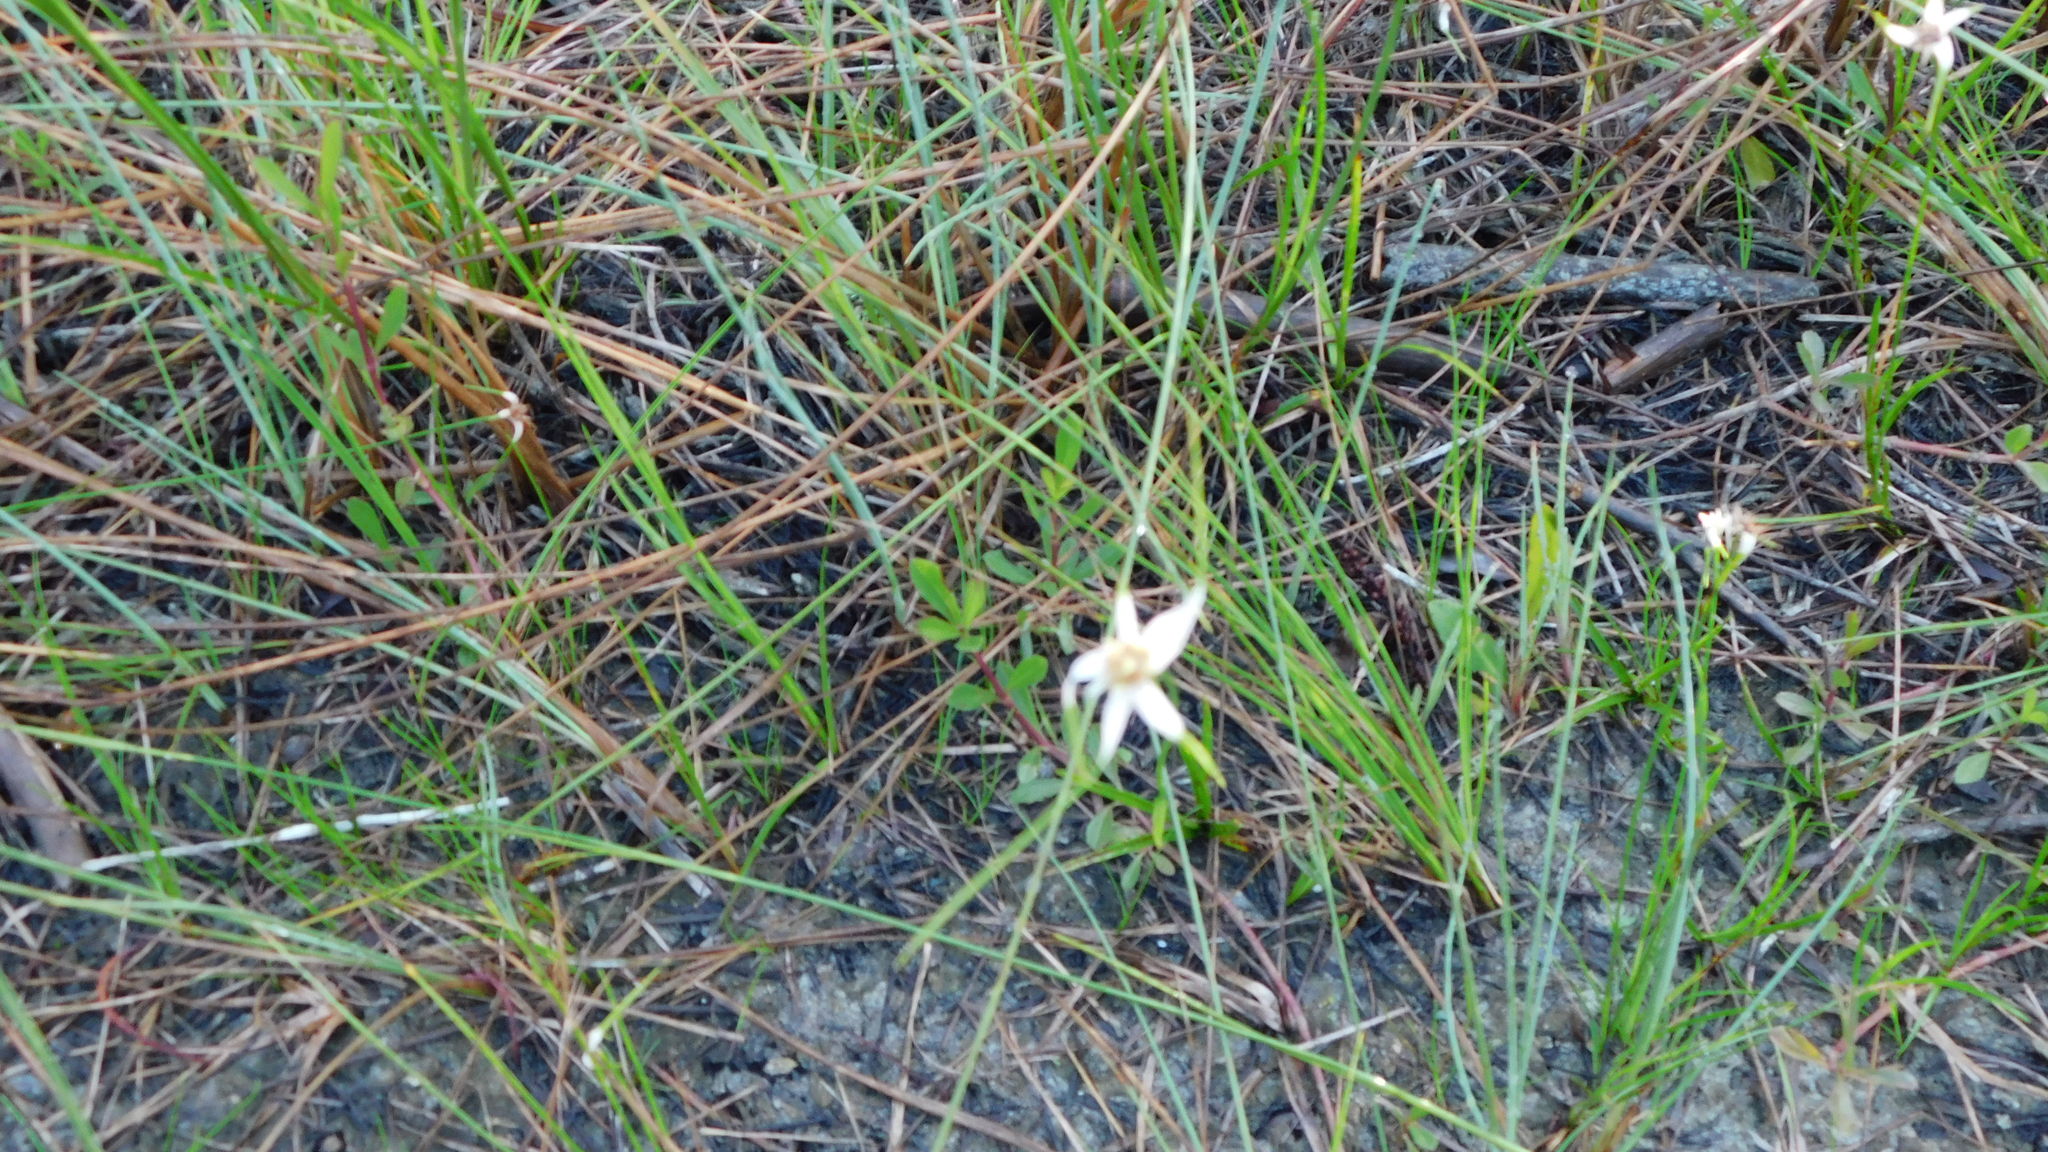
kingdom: Plantae
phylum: Tracheophyta
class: Liliopsida
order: Poales
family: Cyperaceae
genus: Rhynchospora
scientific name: Rhynchospora colorata
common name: Star sedge
